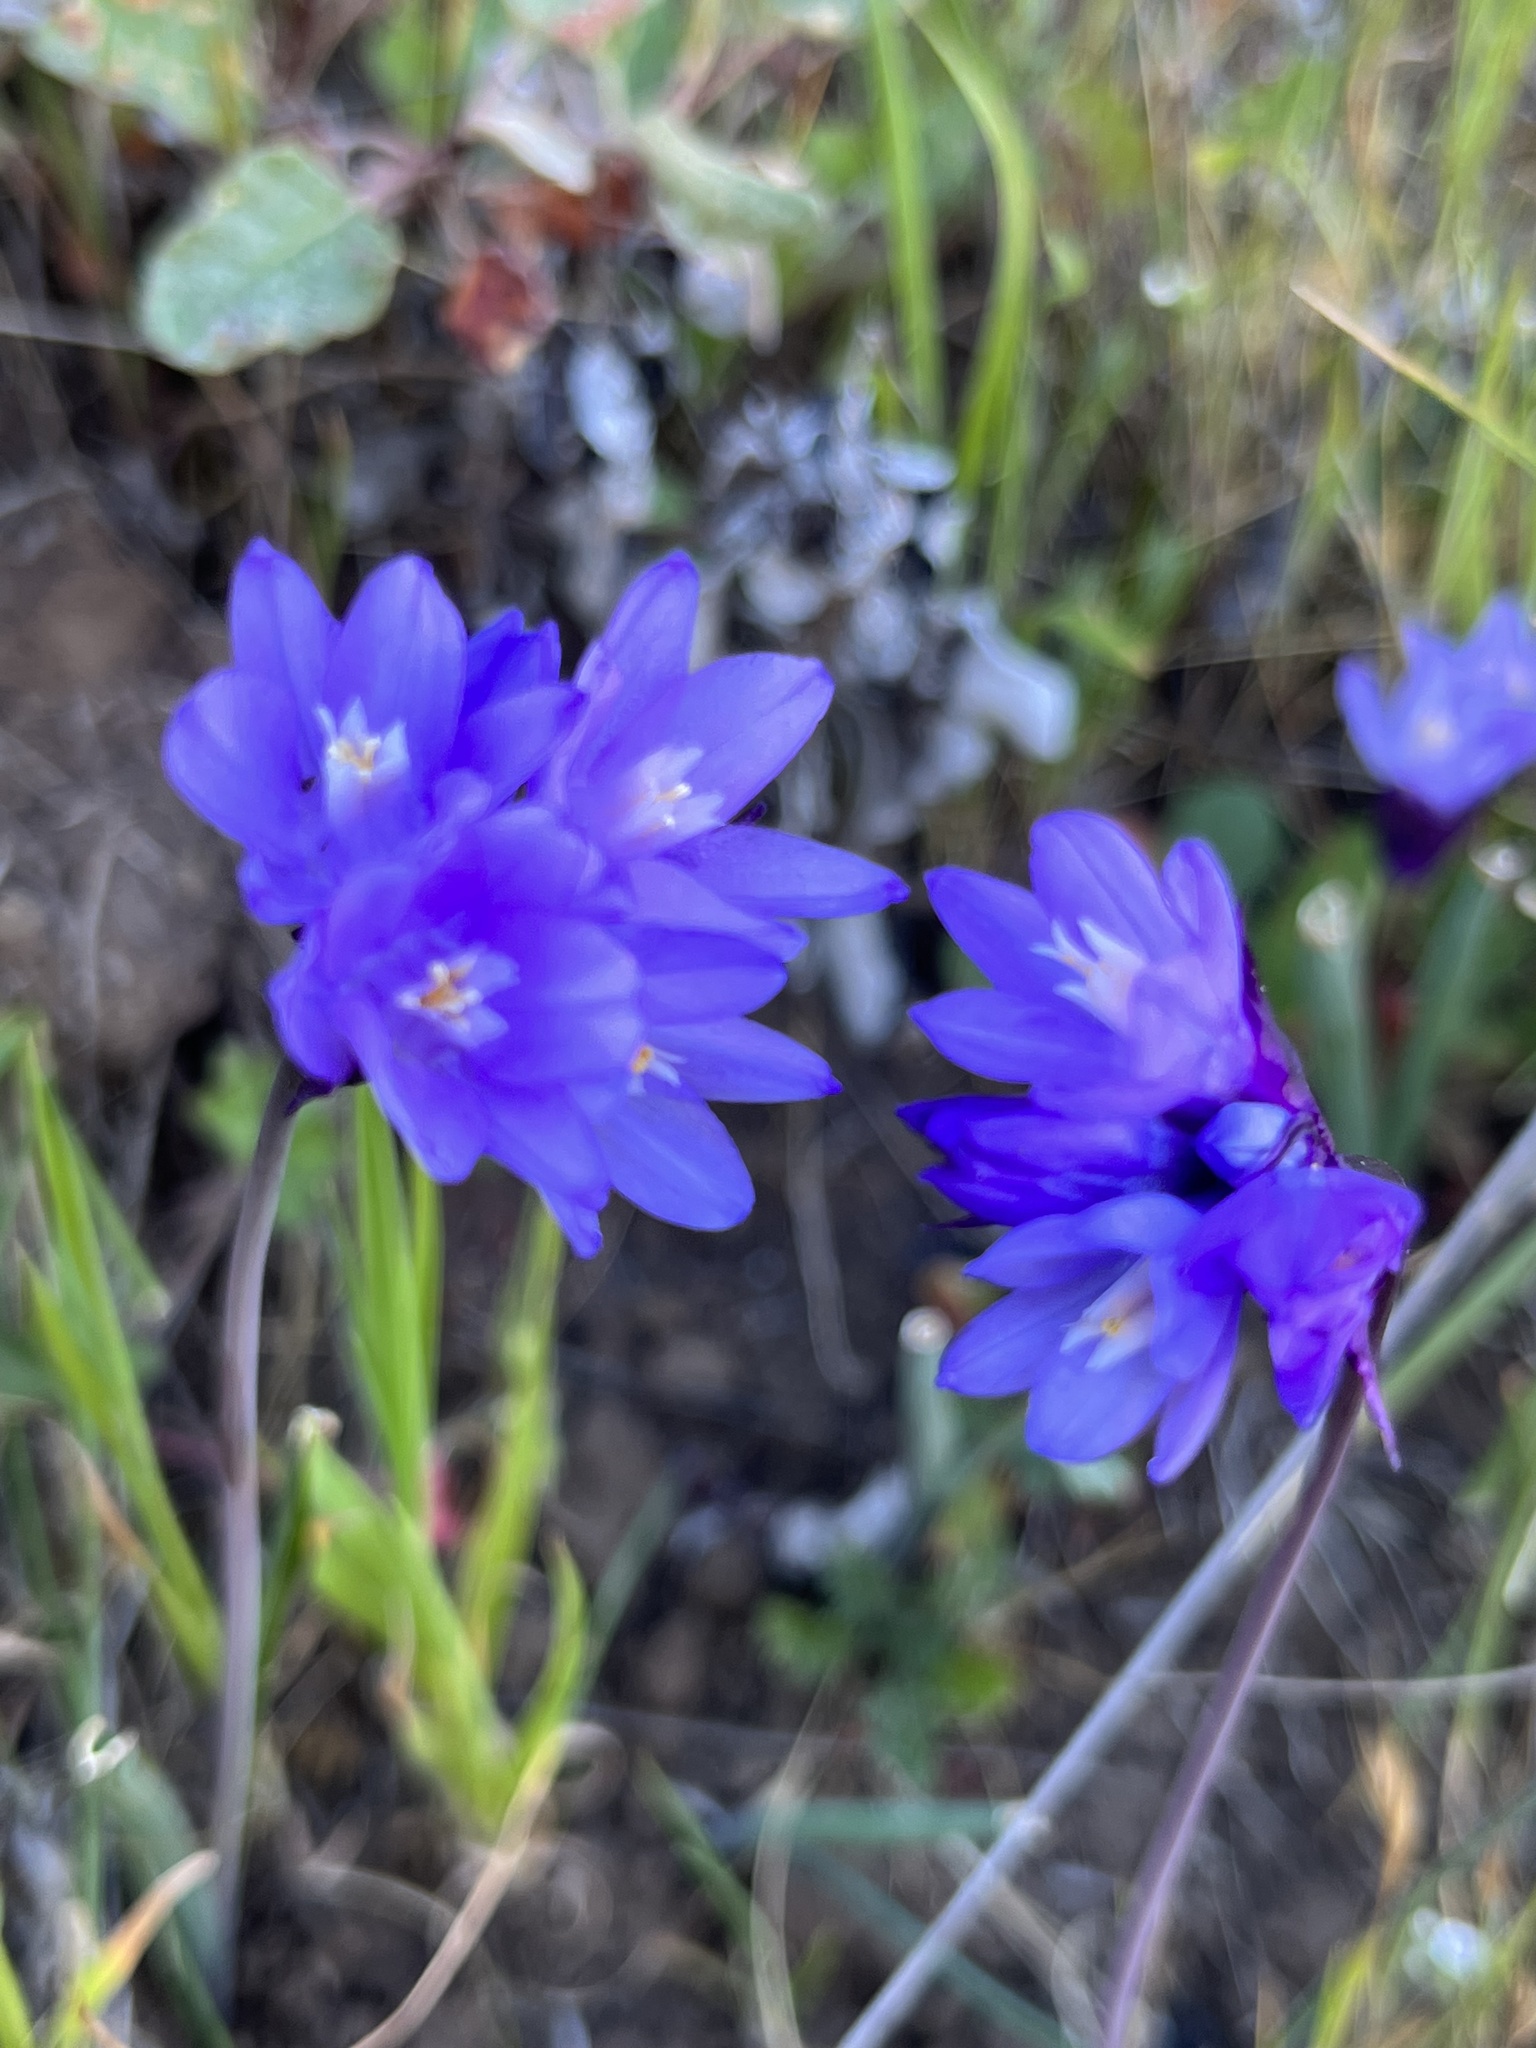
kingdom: Plantae
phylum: Tracheophyta
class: Liliopsida
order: Asparagales
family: Asparagaceae
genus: Dipterostemon
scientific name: Dipterostemon capitatus
